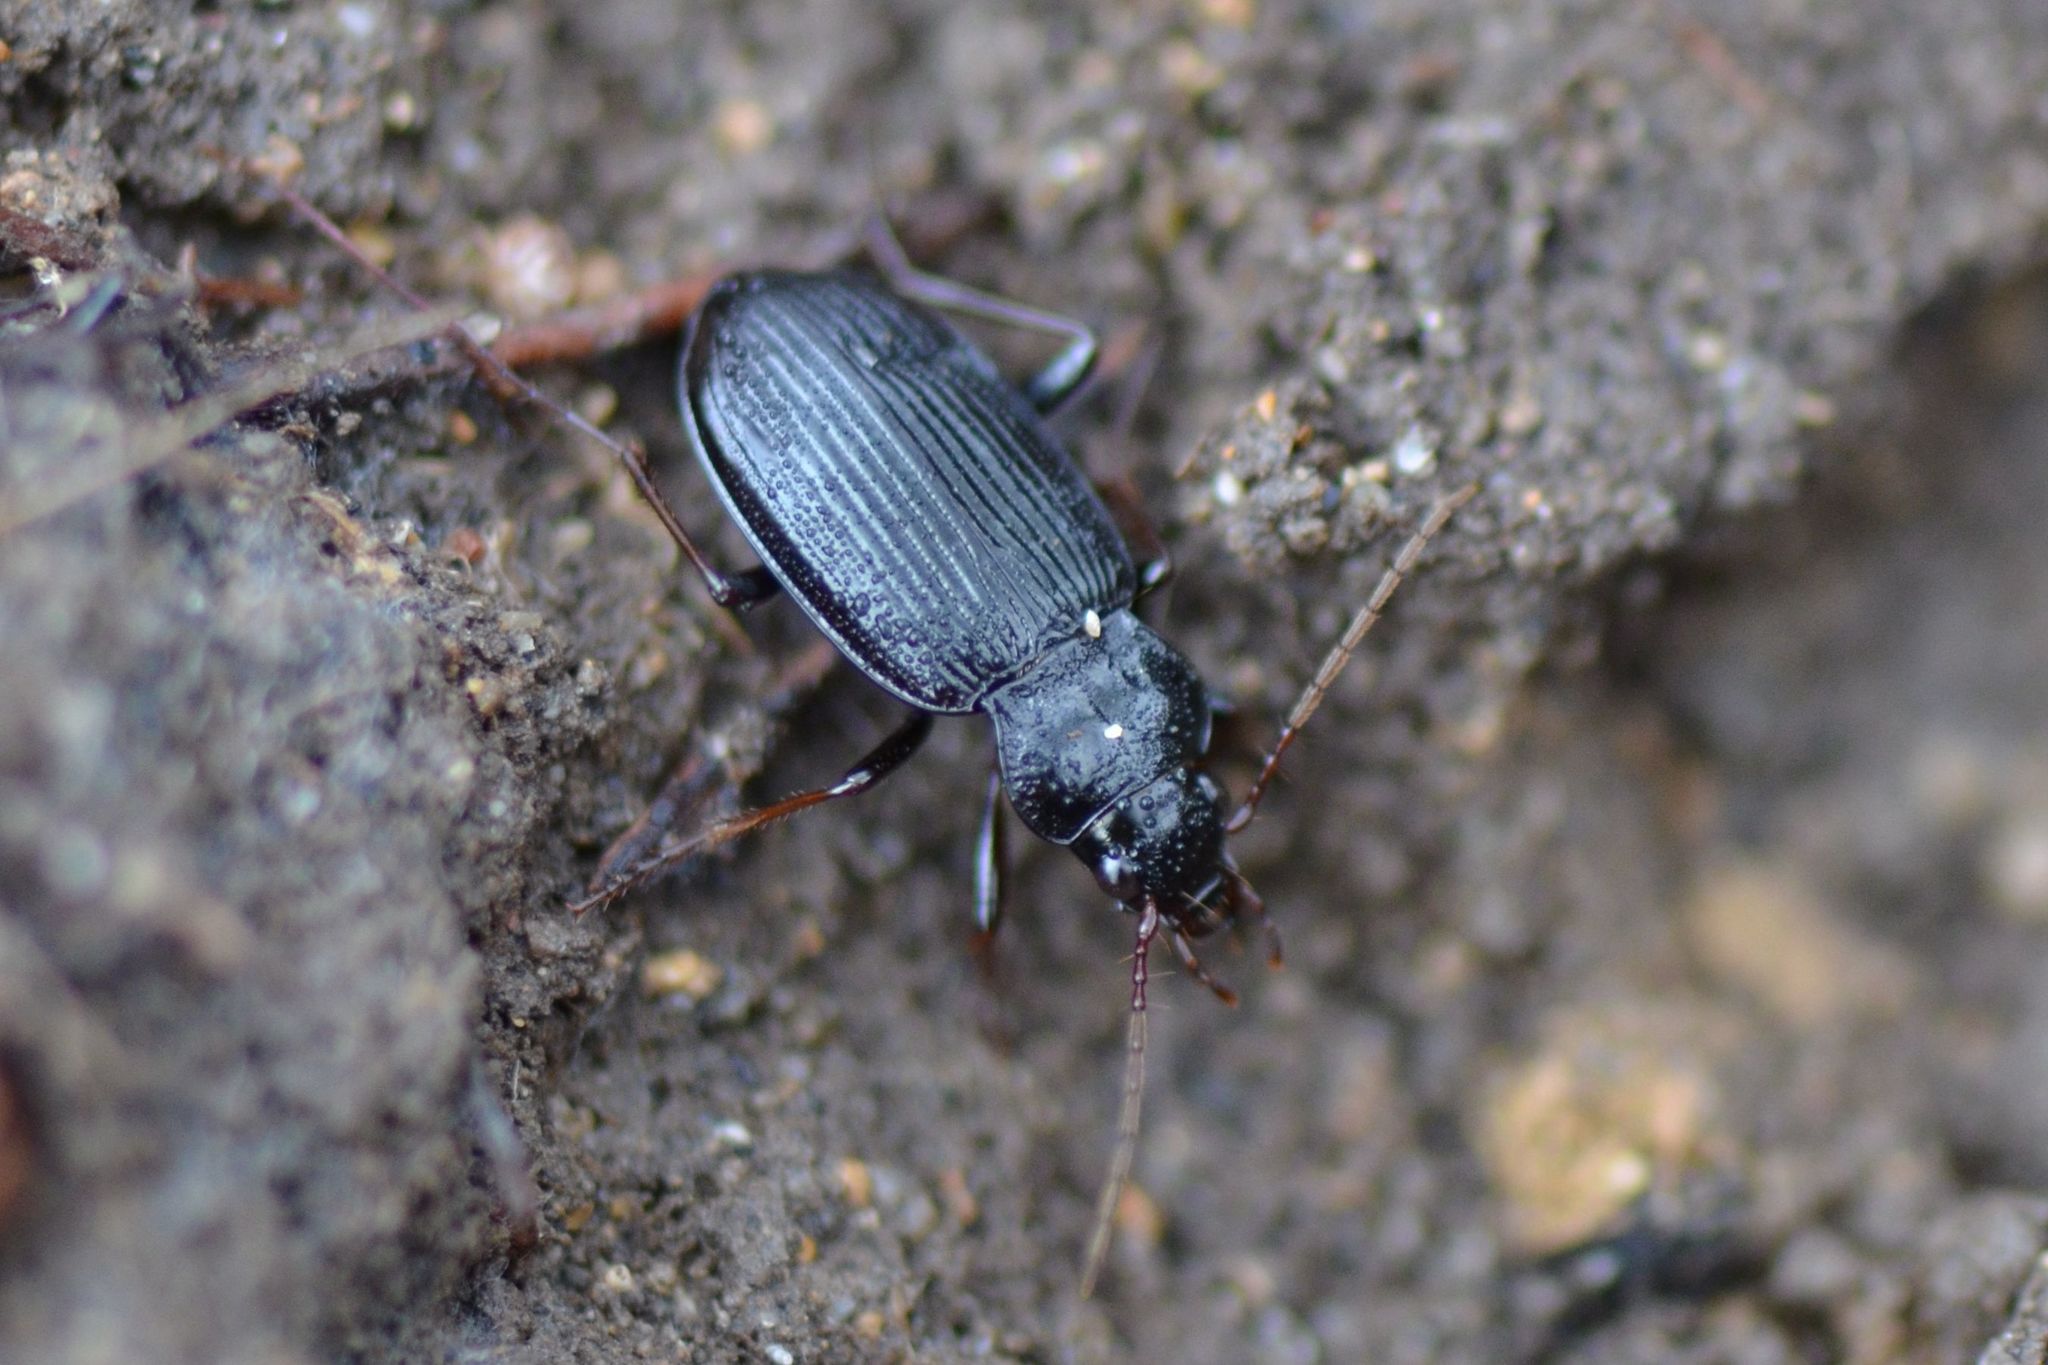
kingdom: Animalia
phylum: Arthropoda
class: Insecta
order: Coleoptera
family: Carabidae
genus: Nebria
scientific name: Nebria brevicollis
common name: Short-necked gazelle beetle
